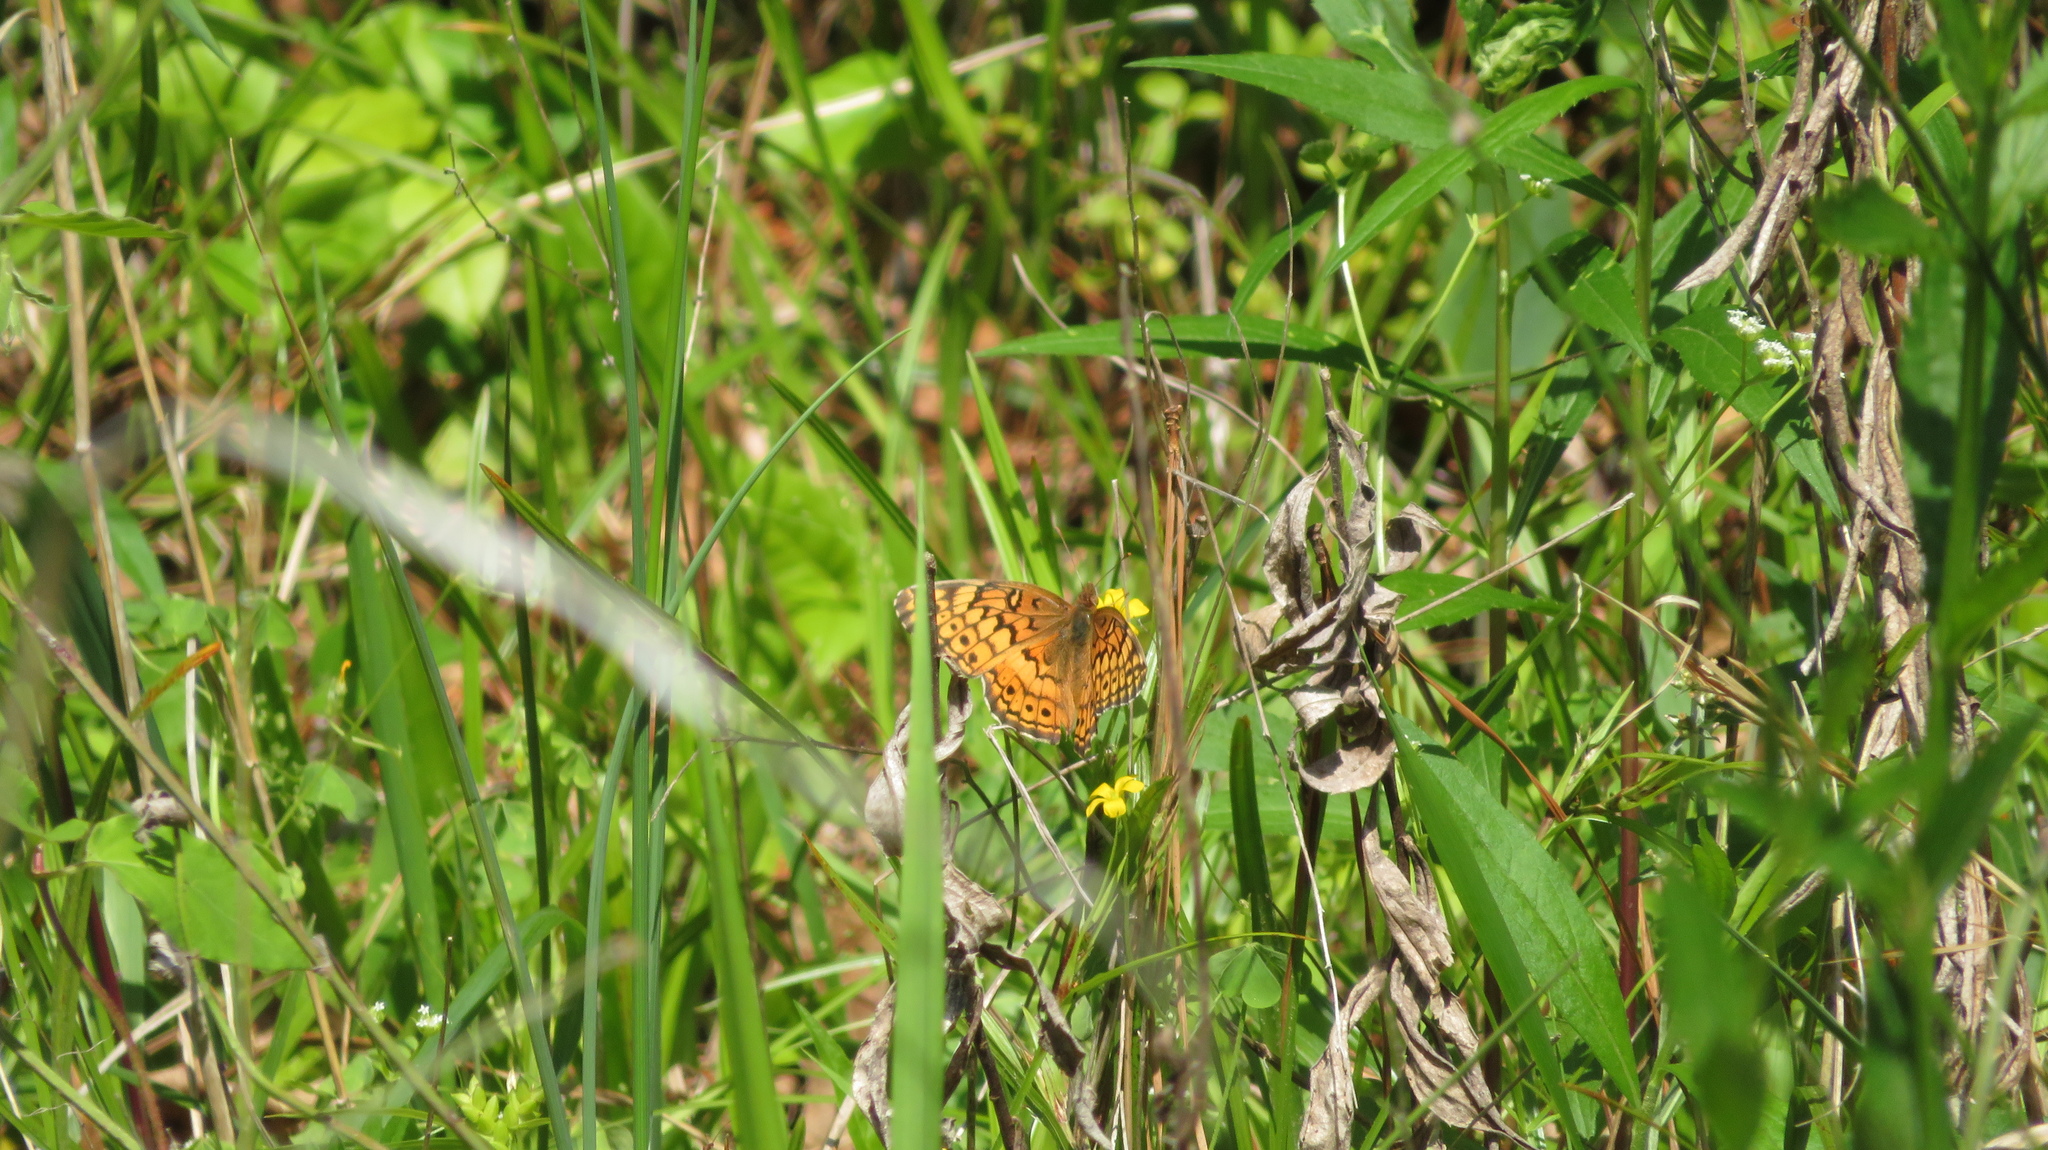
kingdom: Animalia
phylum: Arthropoda
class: Insecta
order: Lepidoptera
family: Nymphalidae
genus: Euptoieta
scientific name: Euptoieta claudia
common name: Variegated fritillary
